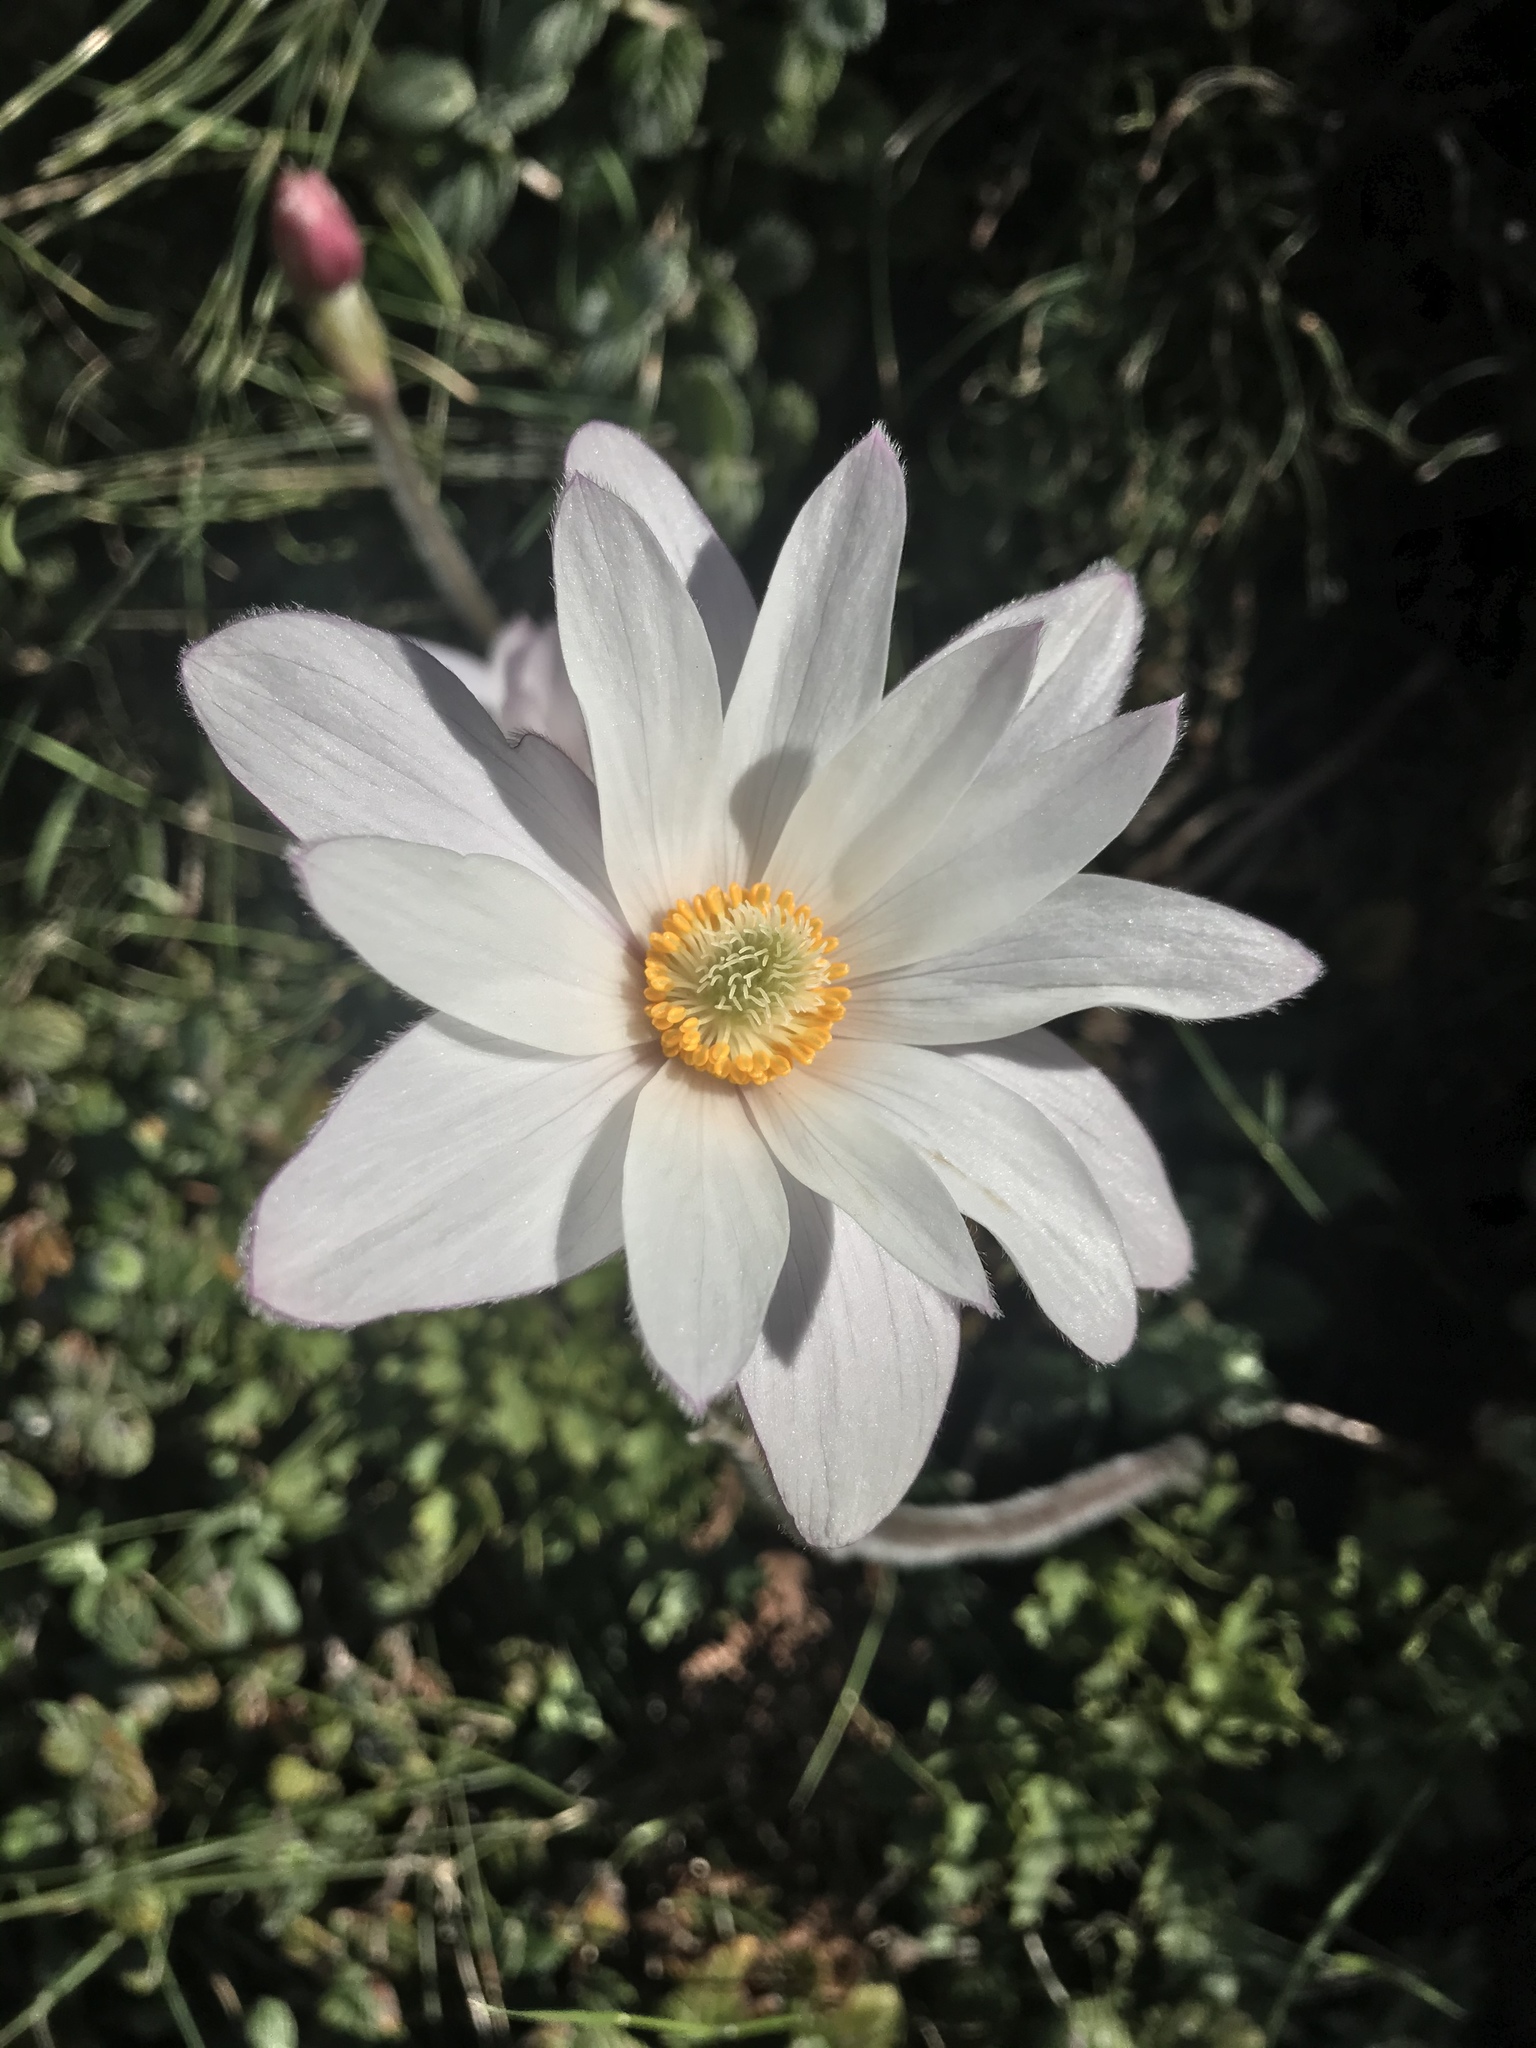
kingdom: Plantae
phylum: Tracheophyta
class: Magnoliopsida
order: Ranunculales
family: Ranunculaceae
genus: Knowltonia
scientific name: Knowltonia tenuifolia
